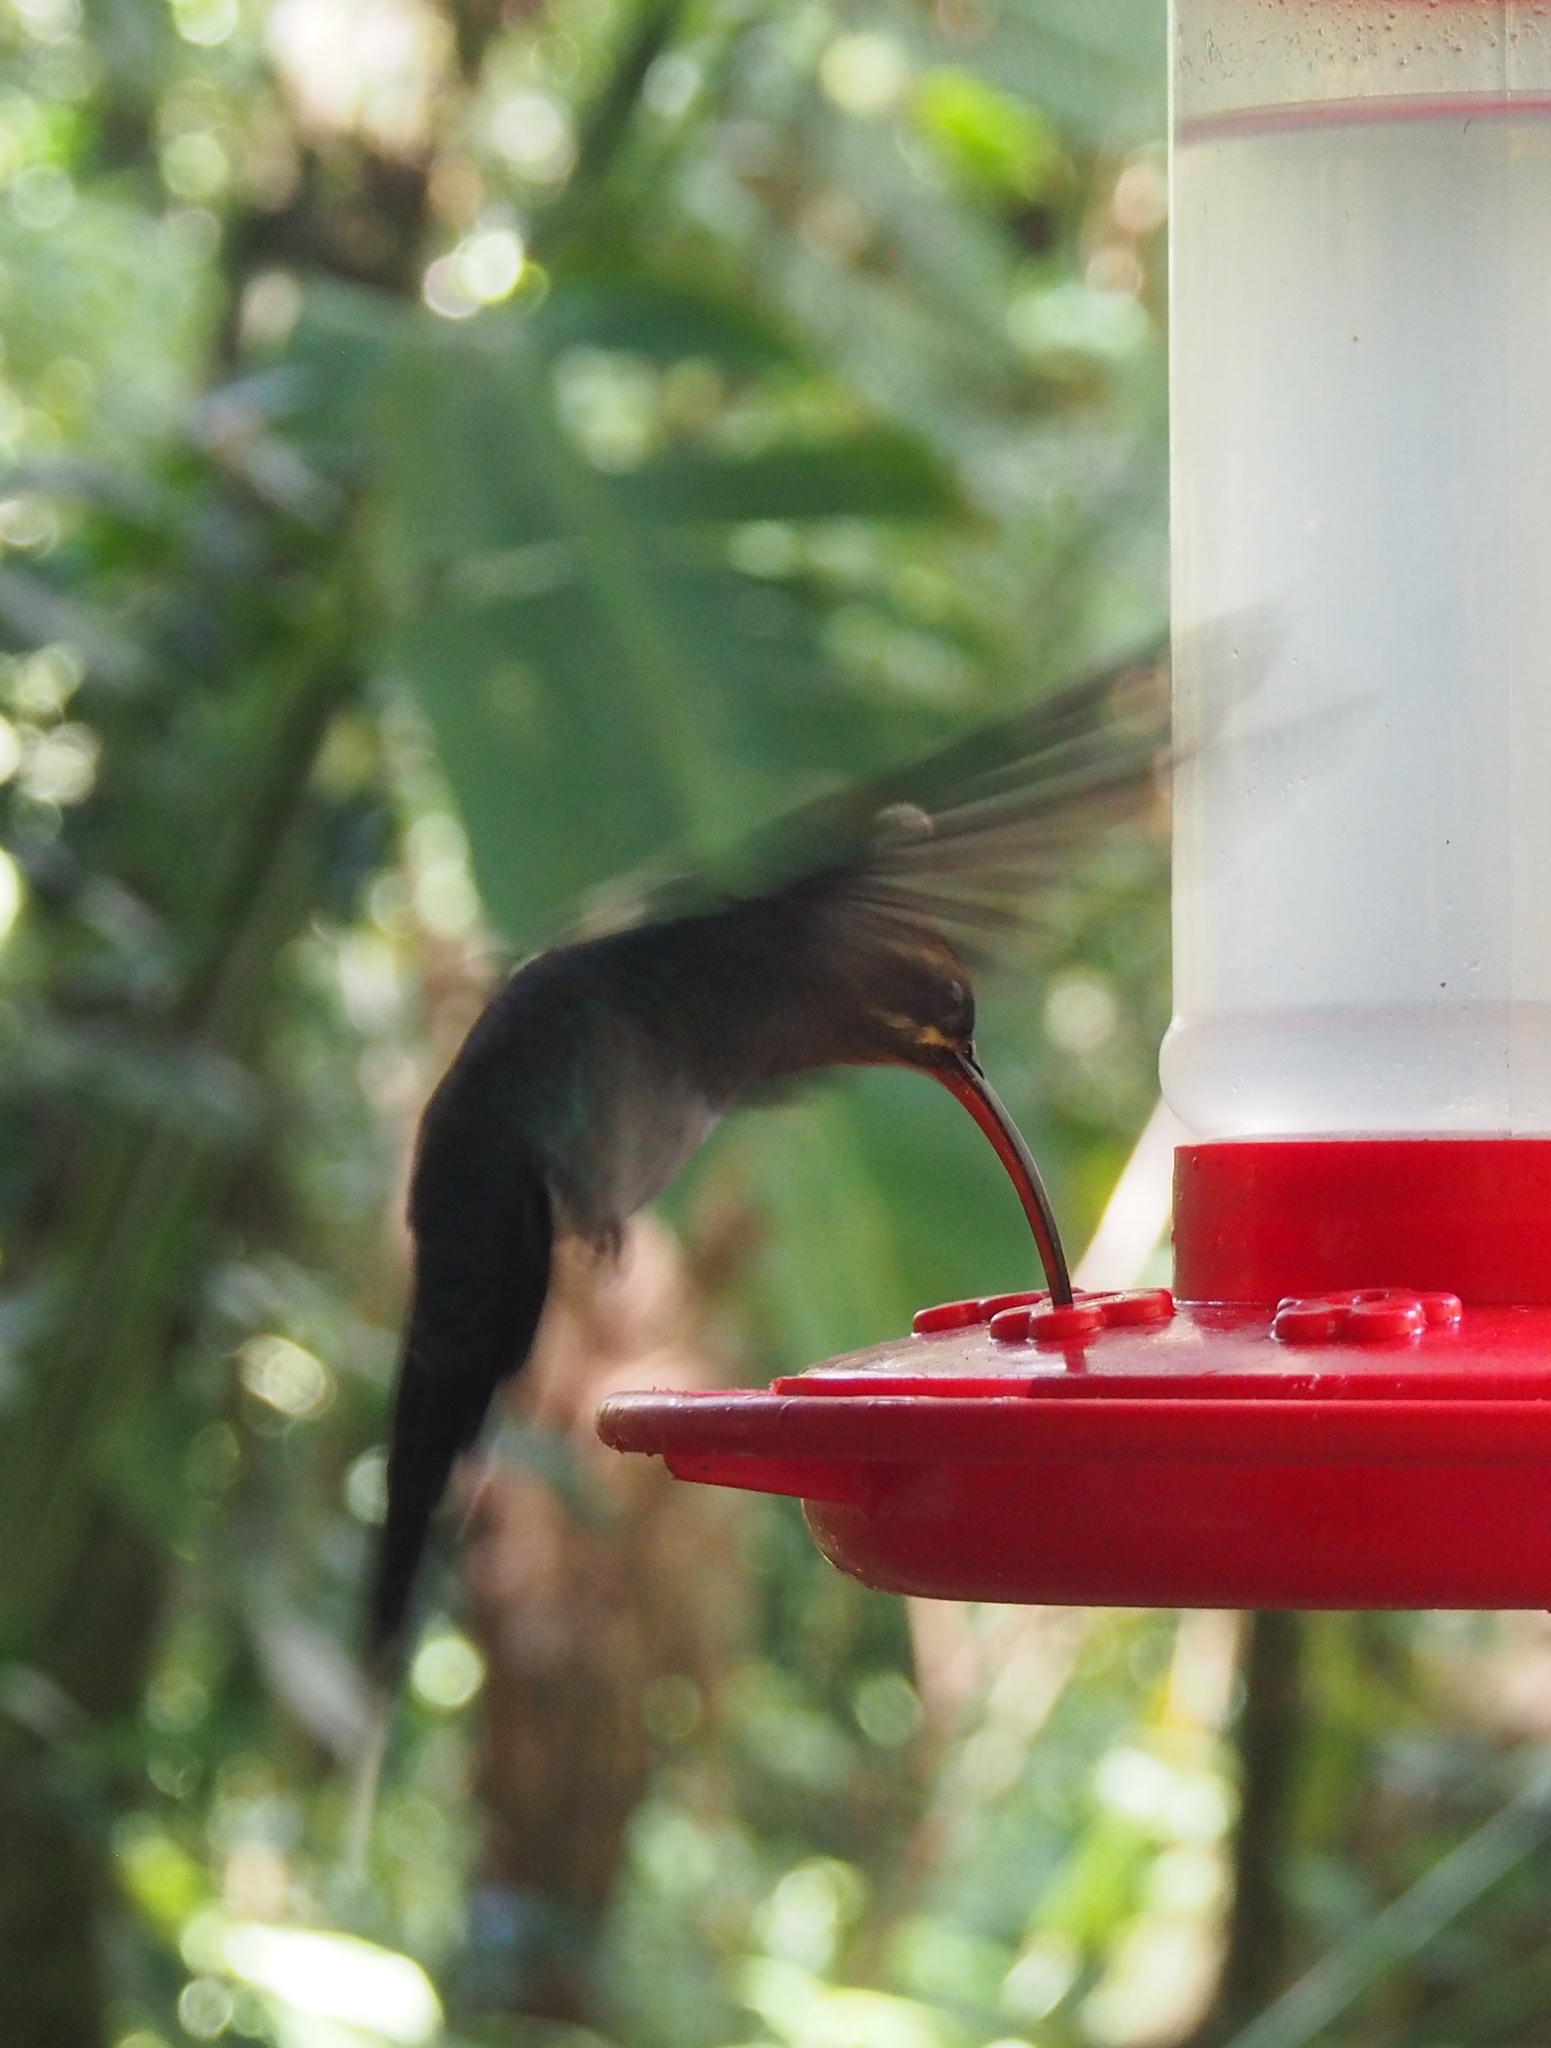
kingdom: Animalia
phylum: Chordata
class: Aves
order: Apodiformes
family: Trochilidae
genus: Phaethornis
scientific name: Phaethornis guy
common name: Green hermit
